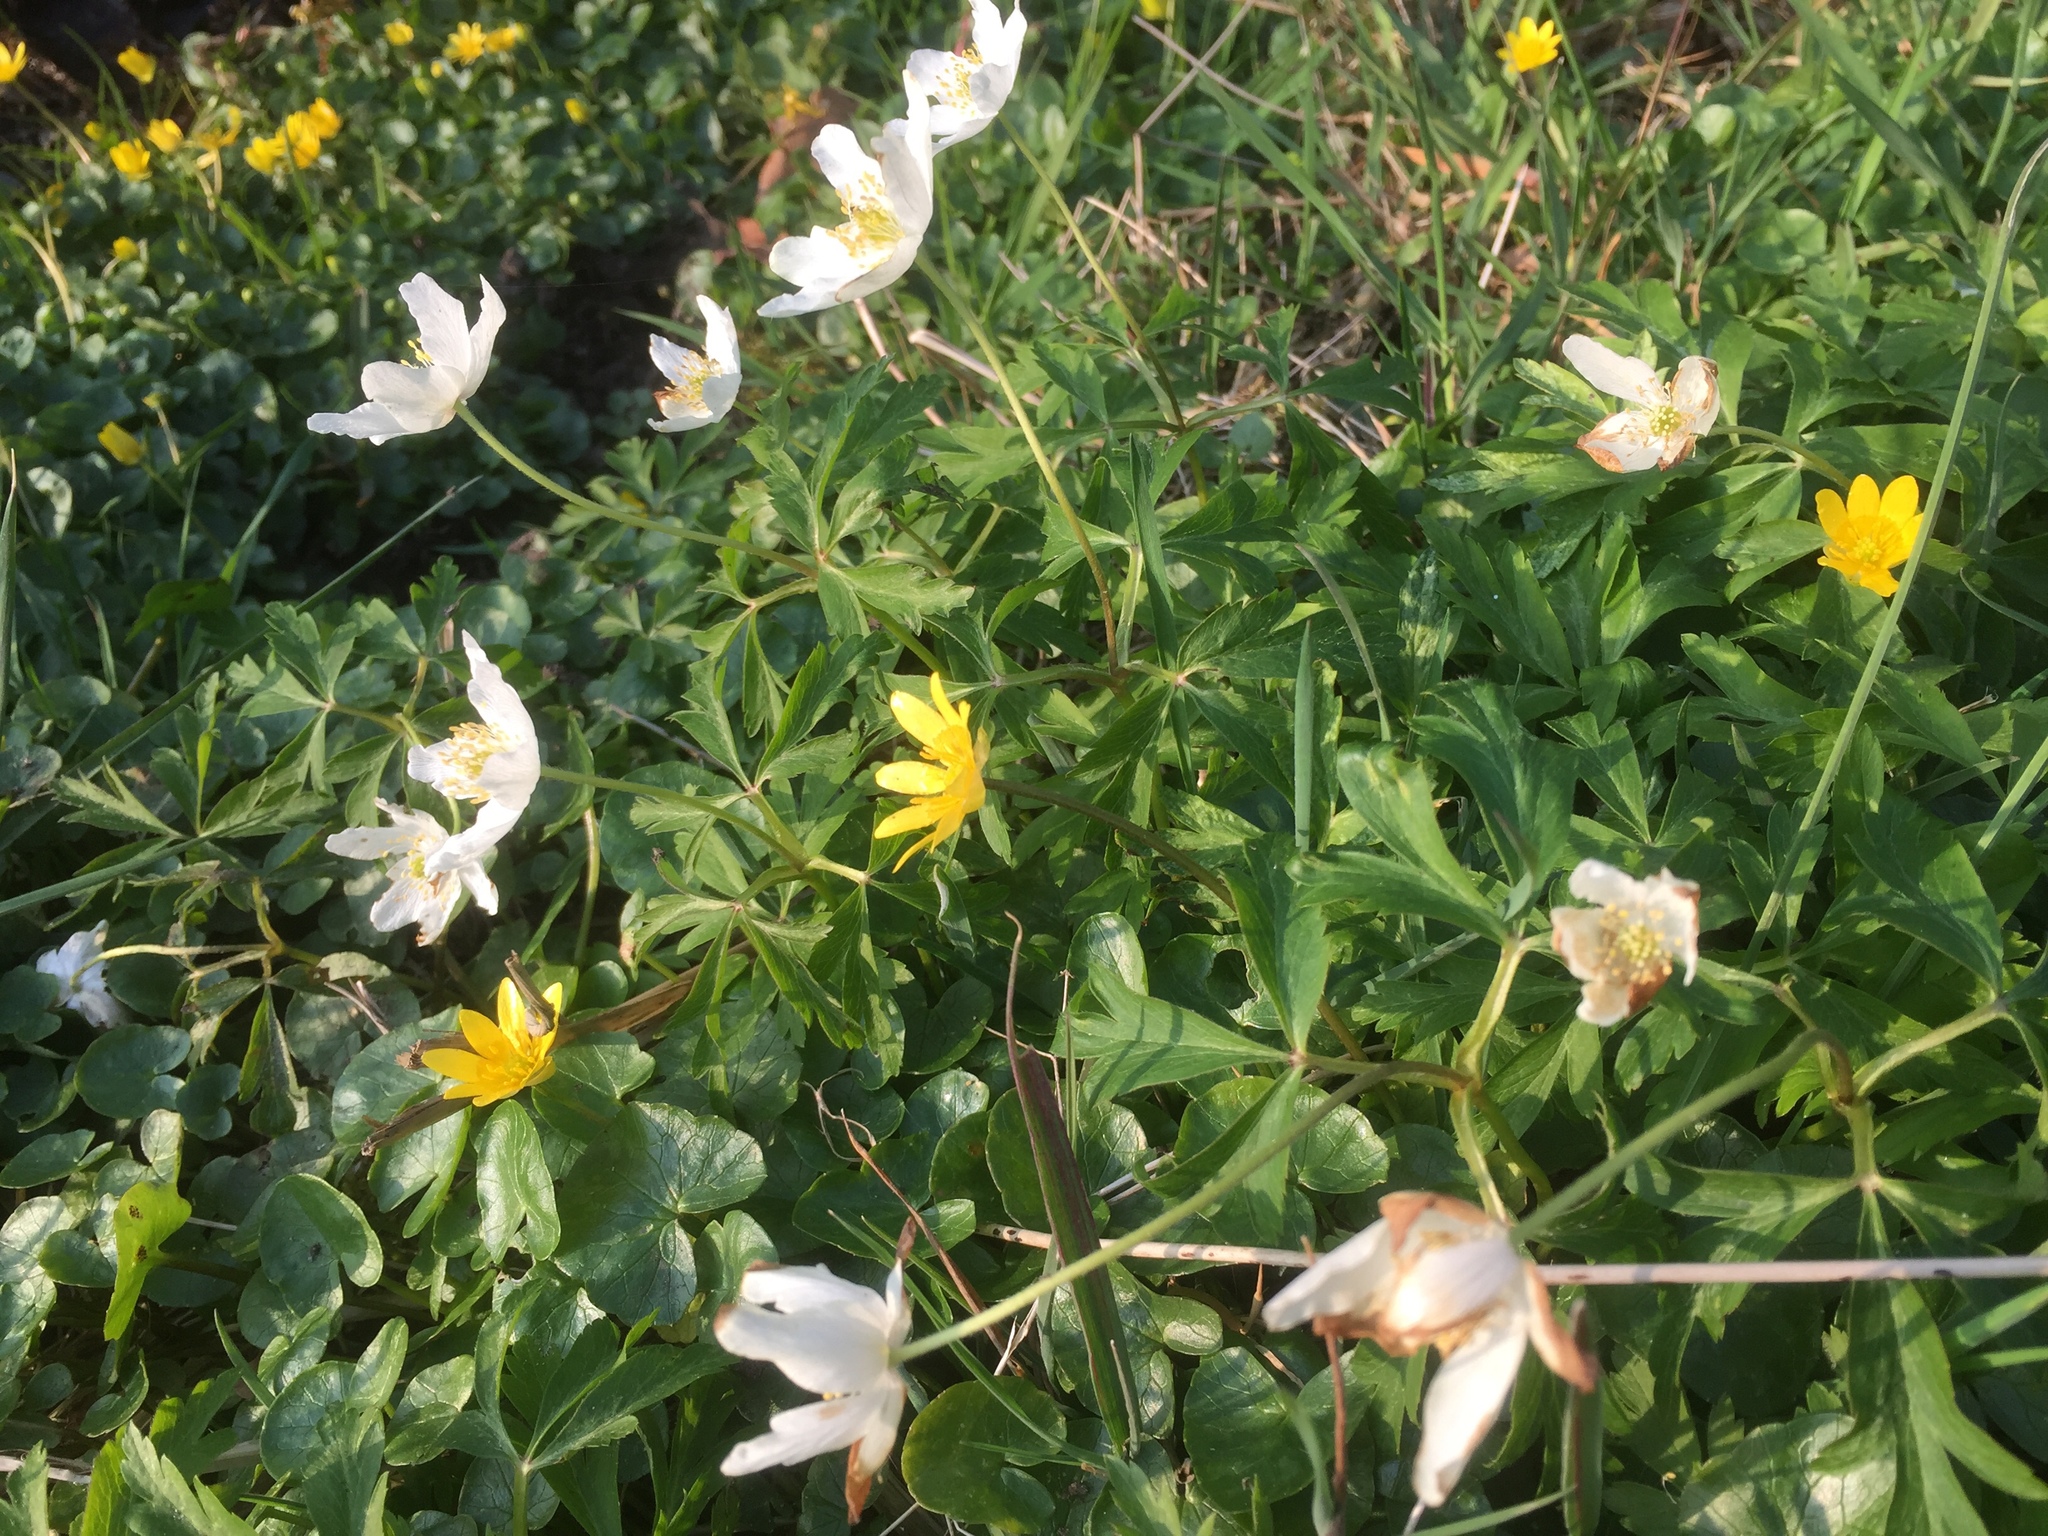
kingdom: Plantae
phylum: Tracheophyta
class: Magnoliopsida
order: Ranunculales
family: Ranunculaceae
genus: Anemone
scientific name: Anemone nemorosa
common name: Wood anemone
